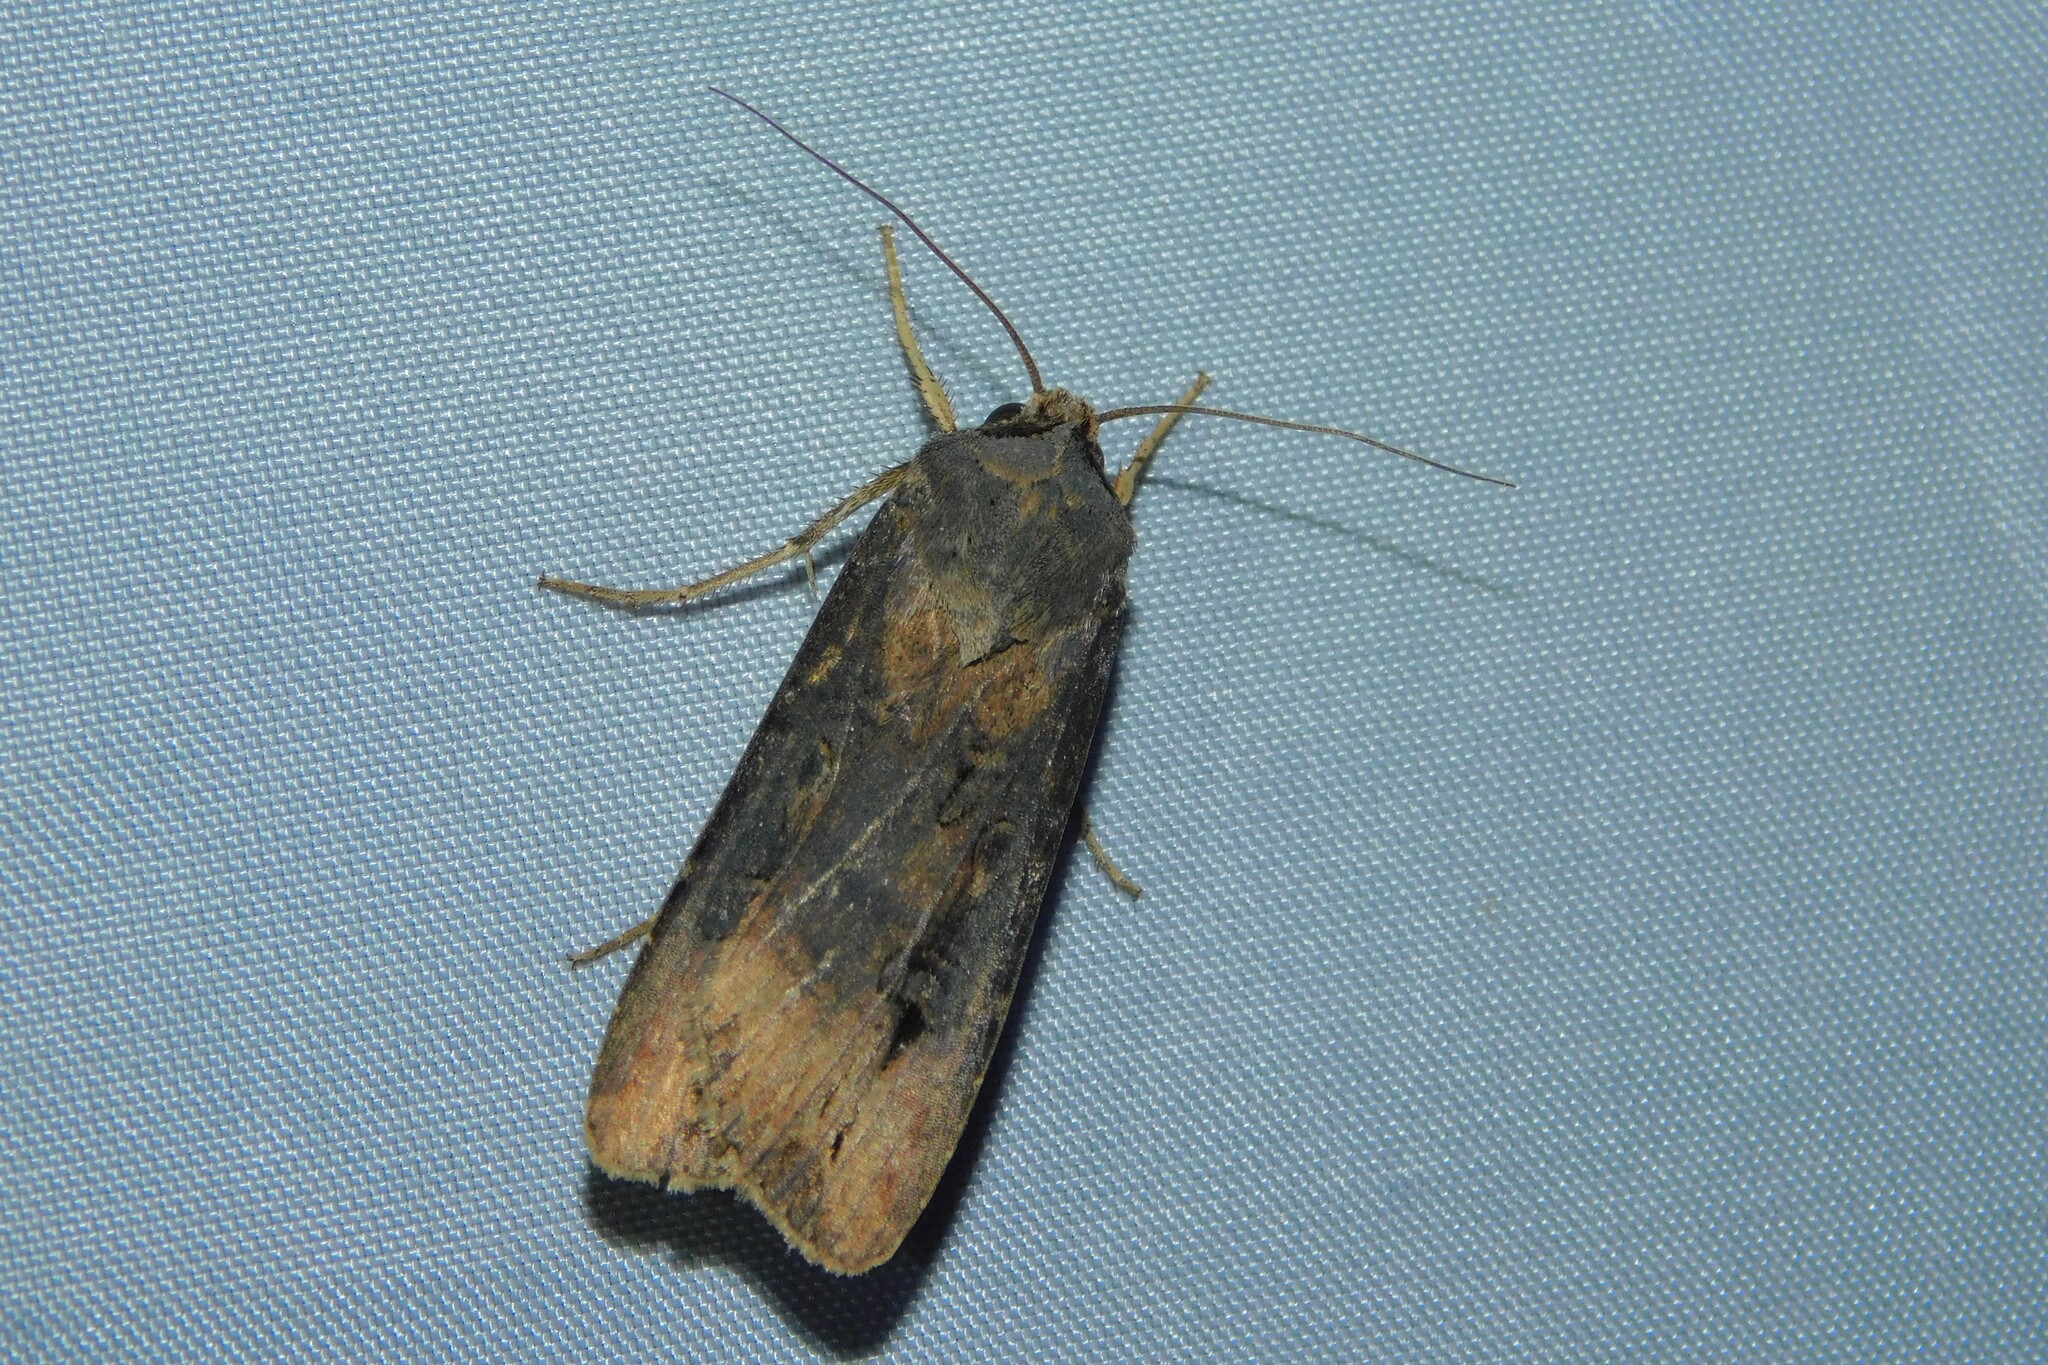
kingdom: Animalia
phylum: Arthropoda
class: Insecta
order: Lepidoptera
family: Noctuidae
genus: Agrotis
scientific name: Agrotis ipsilon
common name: Dark sword-grass
